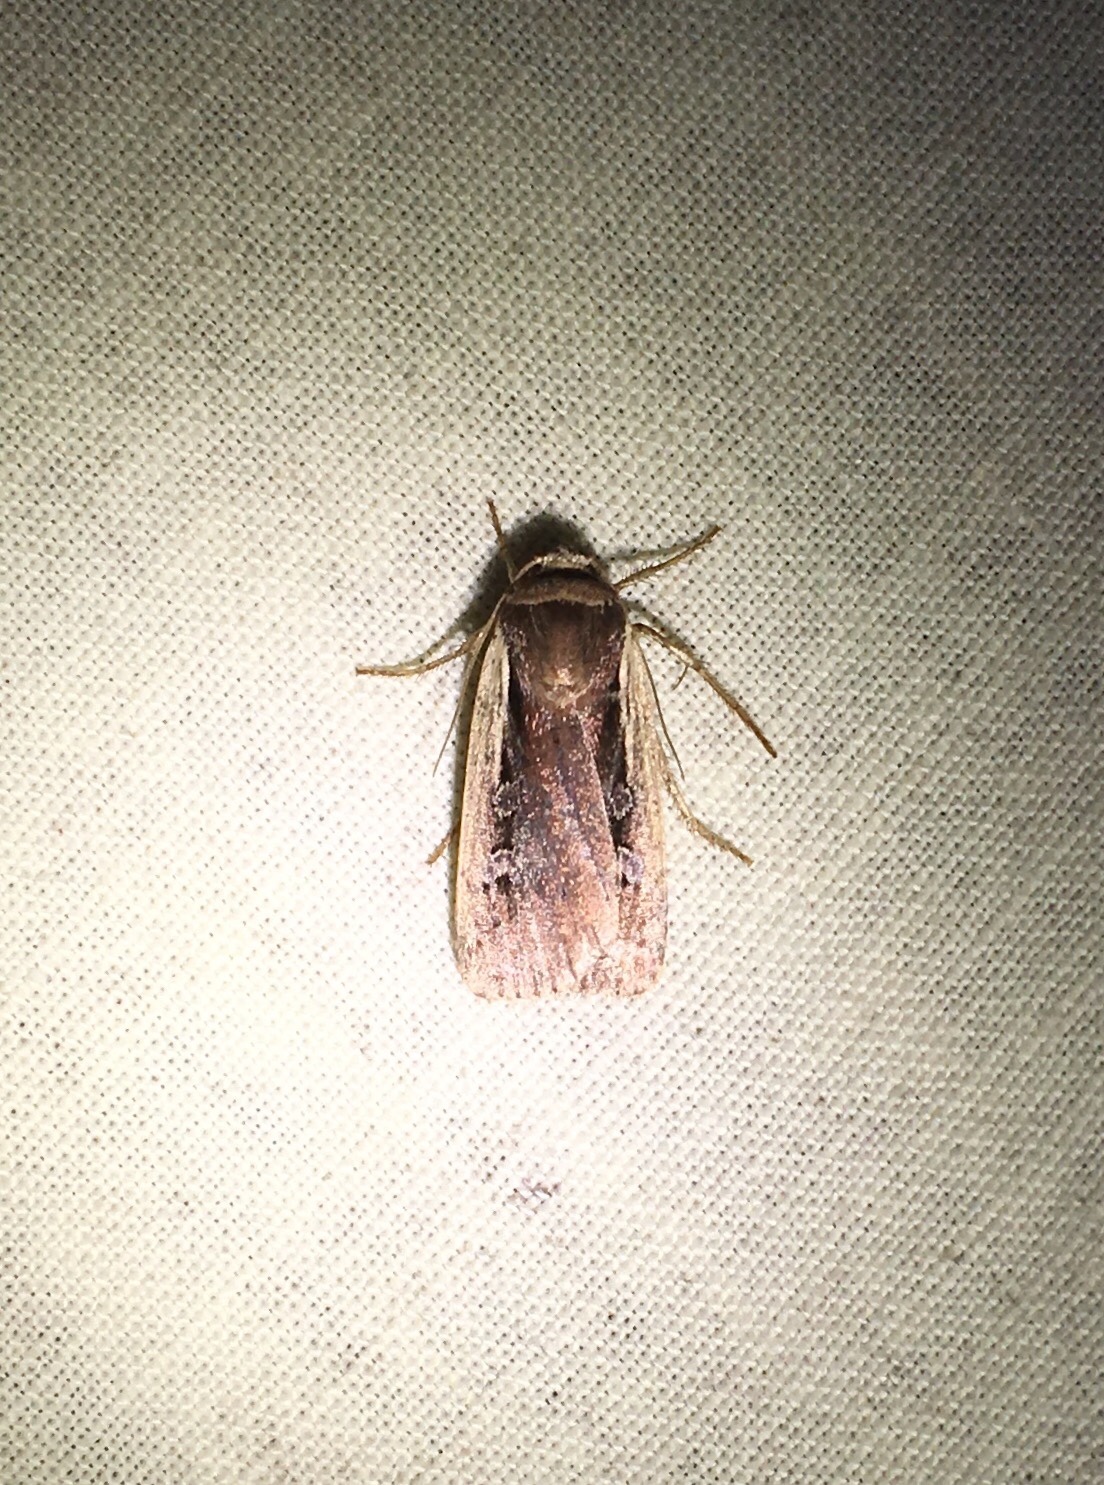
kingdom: Animalia
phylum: Arthropoda
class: Insecta
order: Lepidoptera
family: Noctuidae
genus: Ochropleura
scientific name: Ochropleura implecta
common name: Flame-shouldered dart
